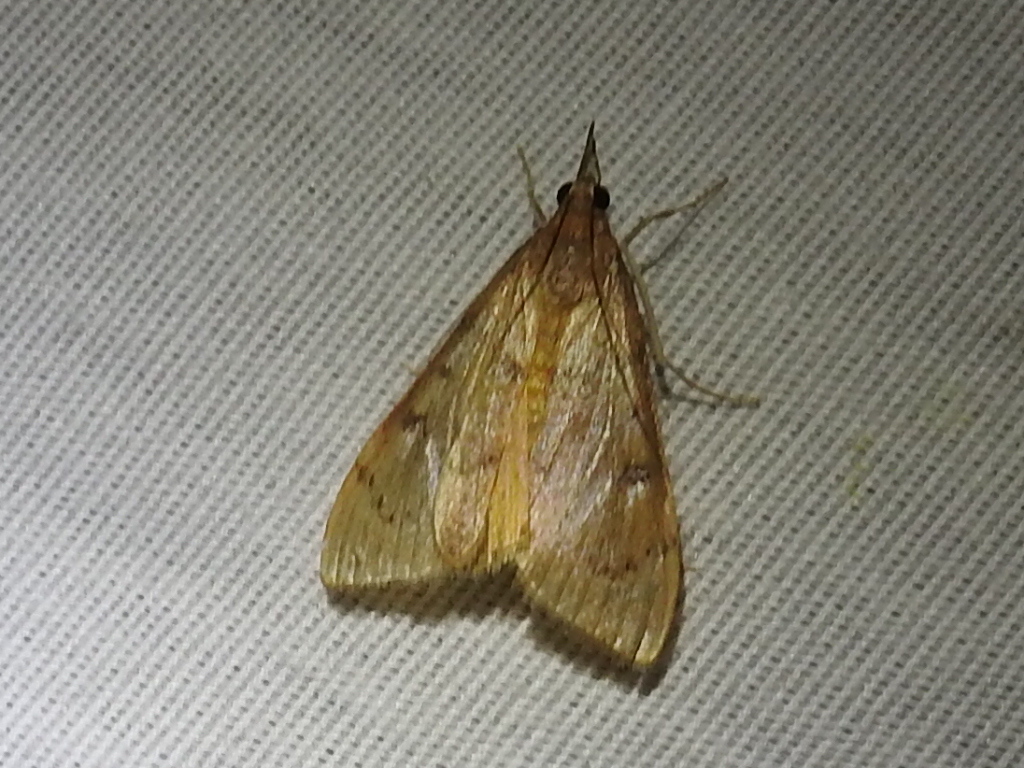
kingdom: Animalia
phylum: Arthropoda
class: Insecta
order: Lepidoptera
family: Crambidae
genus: Uresiphita
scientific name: Uresiphita reversalis
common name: Genista broom moth
